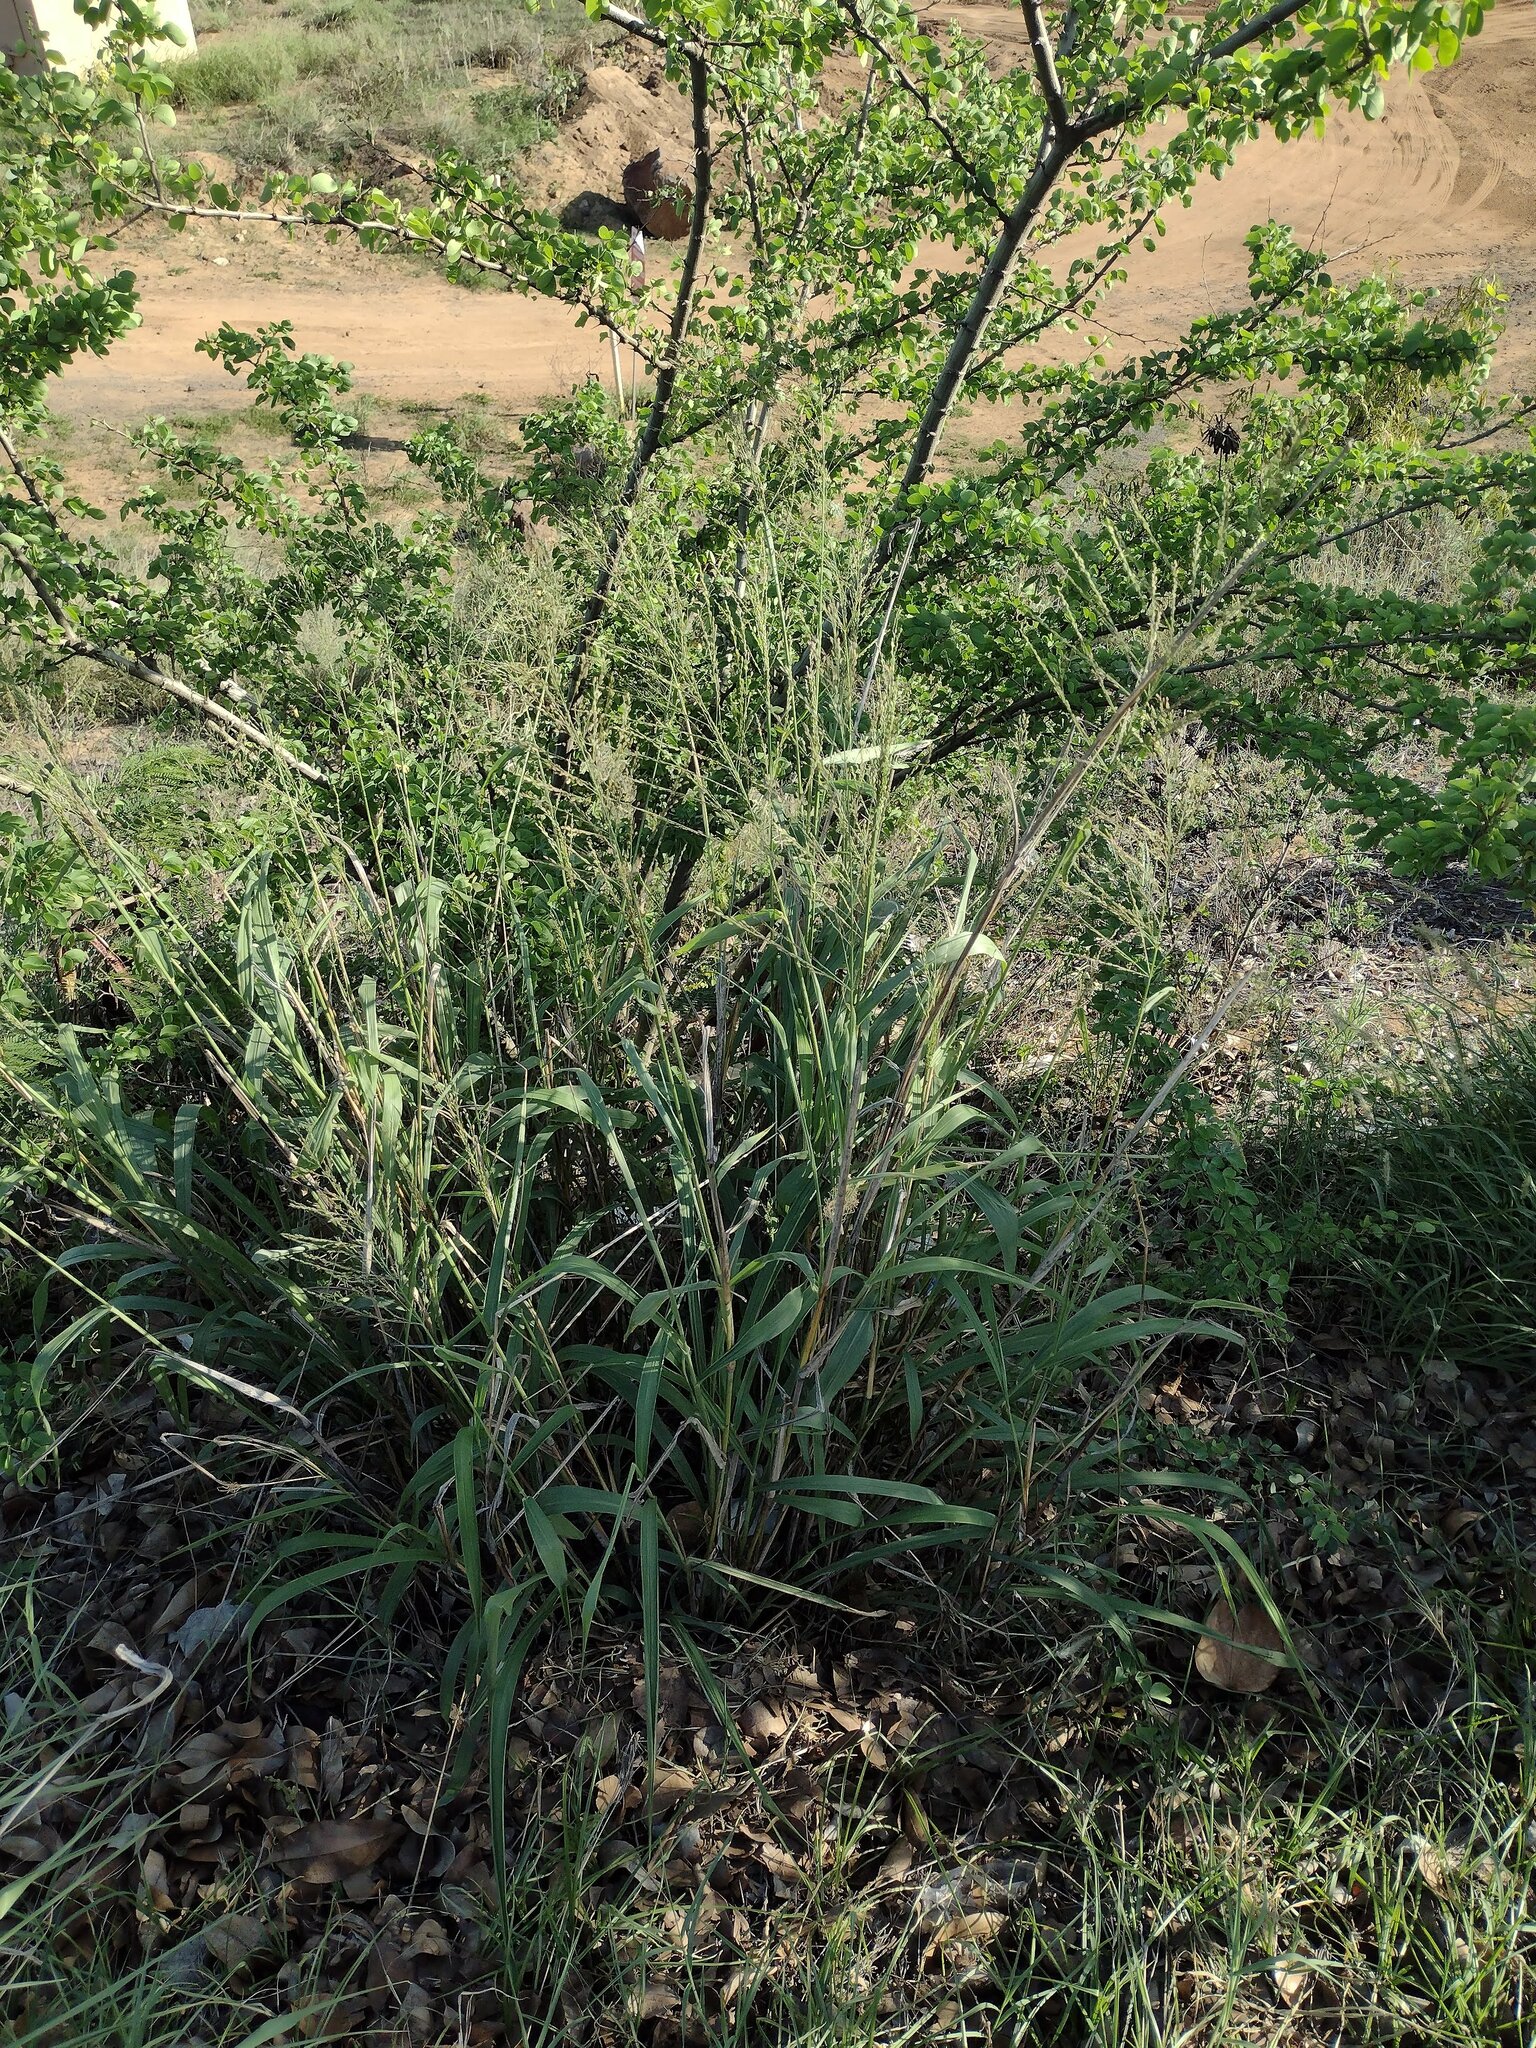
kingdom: Plantae
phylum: Tracheophyta
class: Liliopsida
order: Poales
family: Poaceae
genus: Megathyrsus
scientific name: Megathyrsus maximus
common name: Guineagrass
